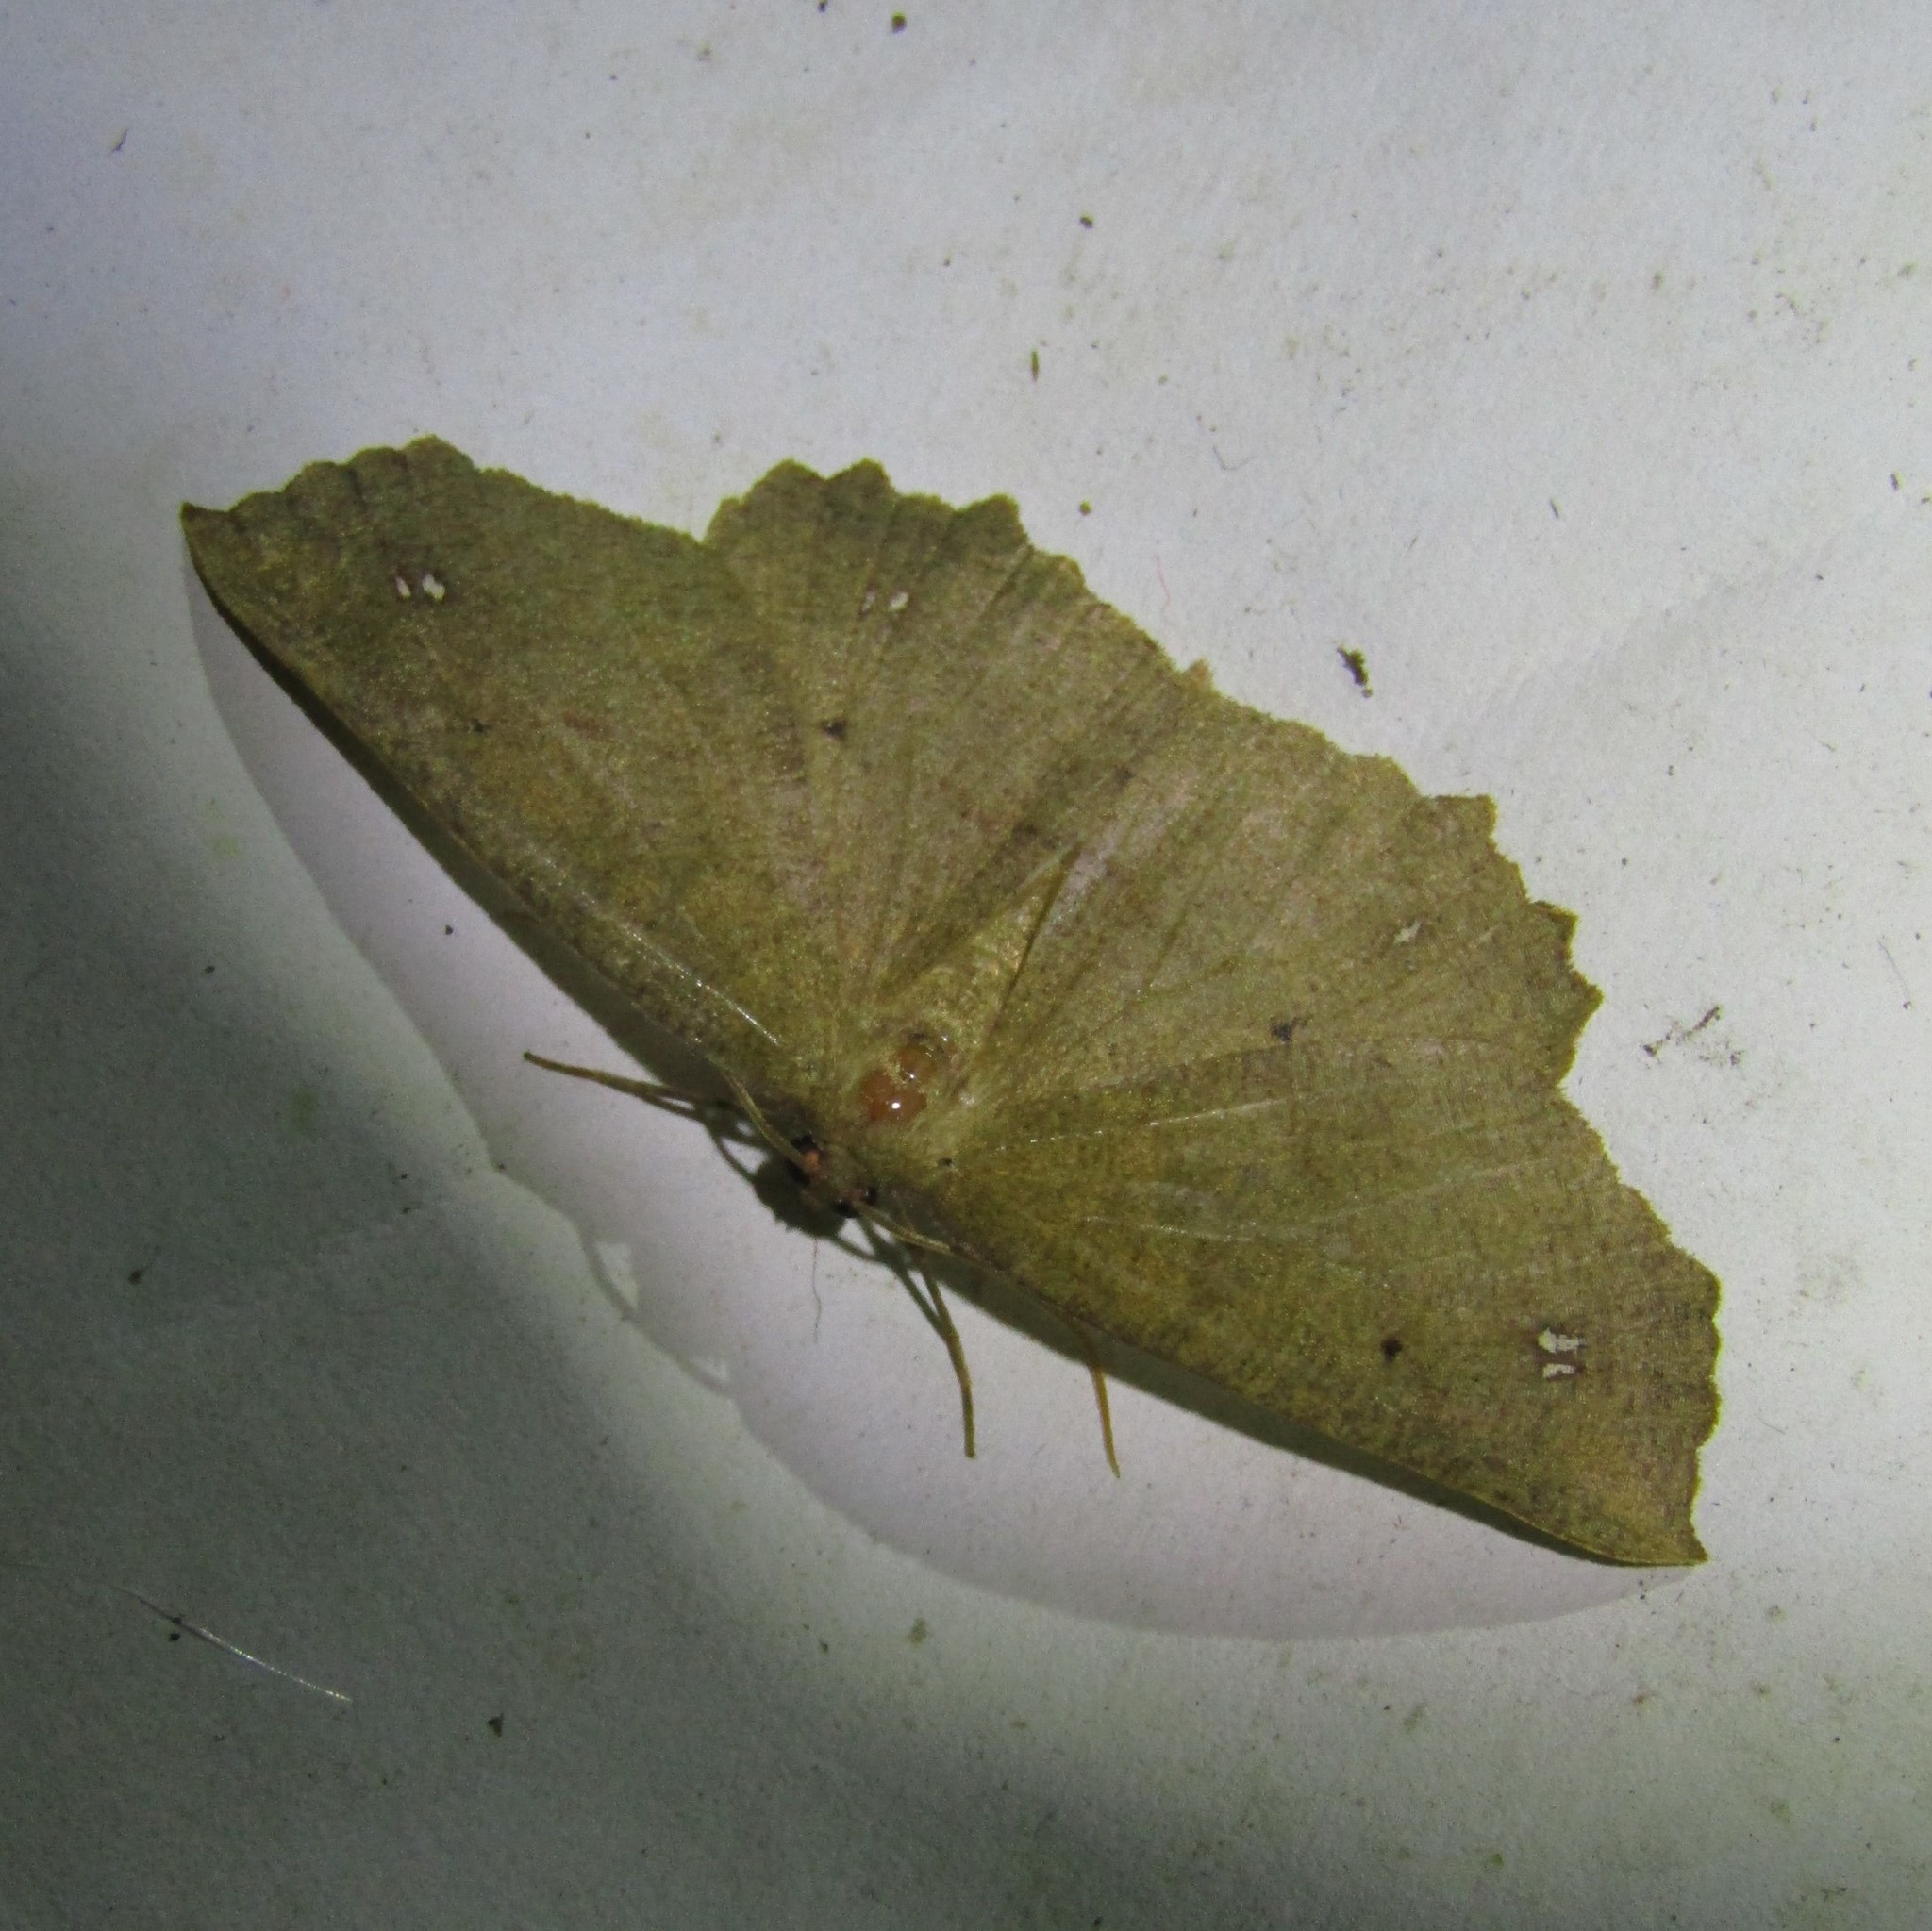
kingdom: Animalia
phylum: Arthropoda
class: Insecta
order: Lepidoptera
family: Geometridae
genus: Xyridacma
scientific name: Xyridacma ustaria
